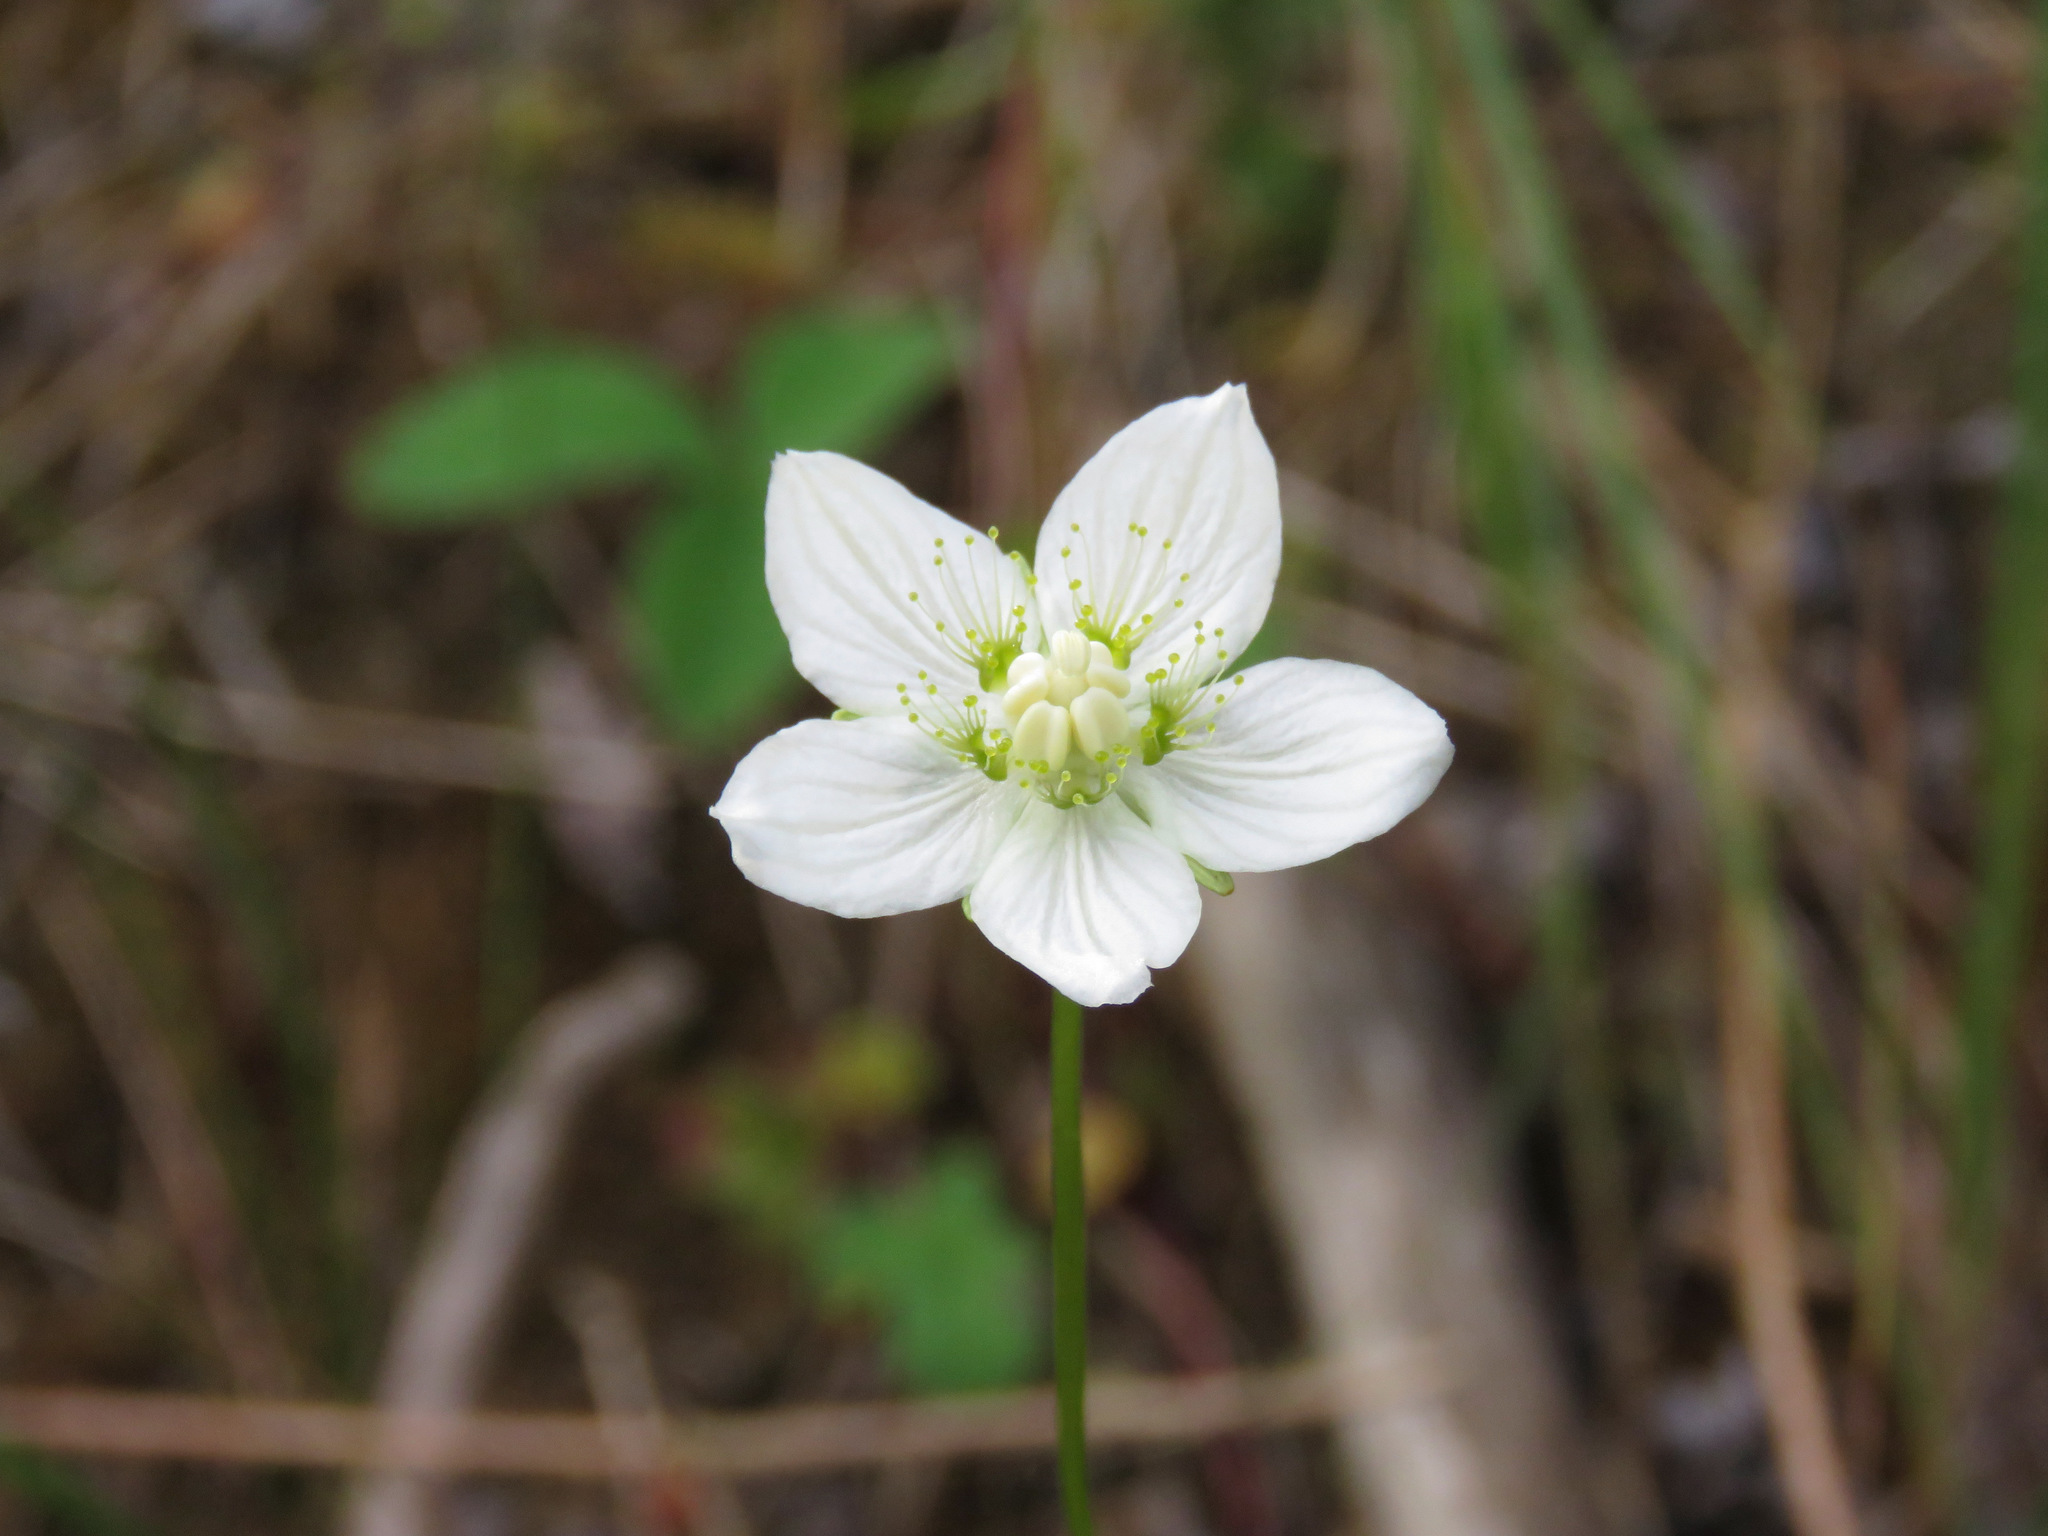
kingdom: Plantae
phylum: Tracheophyta
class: Magnoliopsida
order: Celastrales
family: Parnassiaceae
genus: Parnassia
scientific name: Parnassia palustris
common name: Grass-of-parnassus
